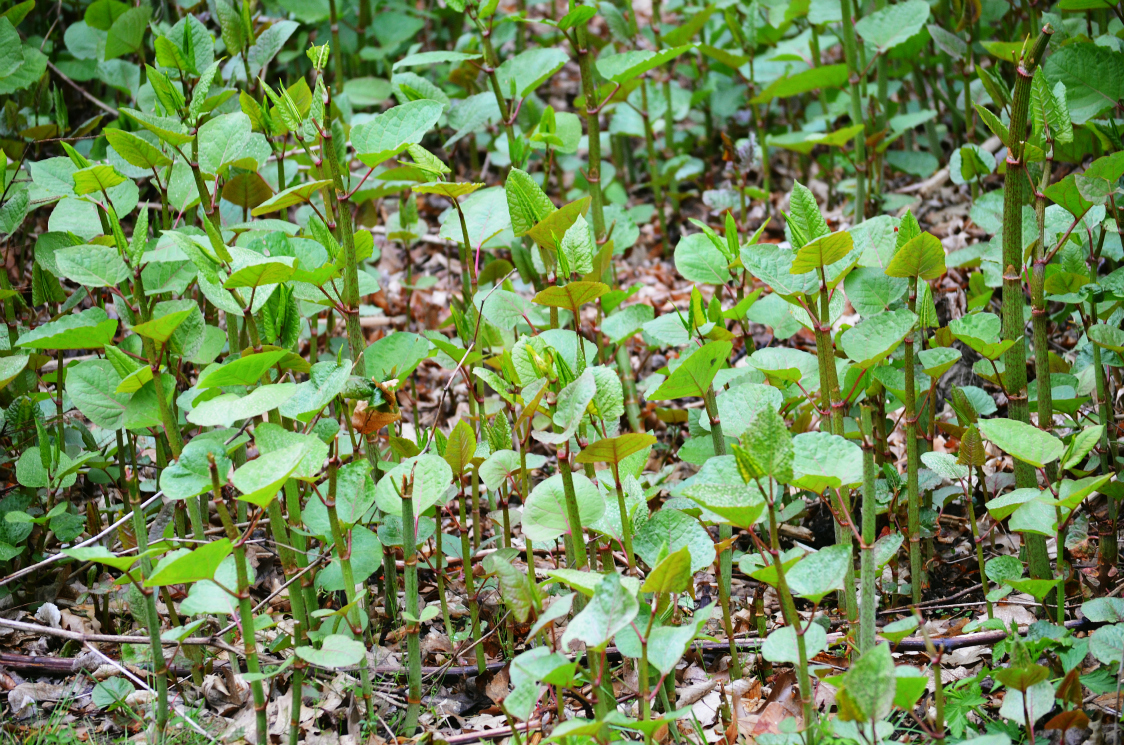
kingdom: Plantae
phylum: Tracheophyta
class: Magnoliopsida
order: Caryophyllales
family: Polygonaceae
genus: Reynoutria
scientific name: Reynoutria japonica
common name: Japanese knotweed
